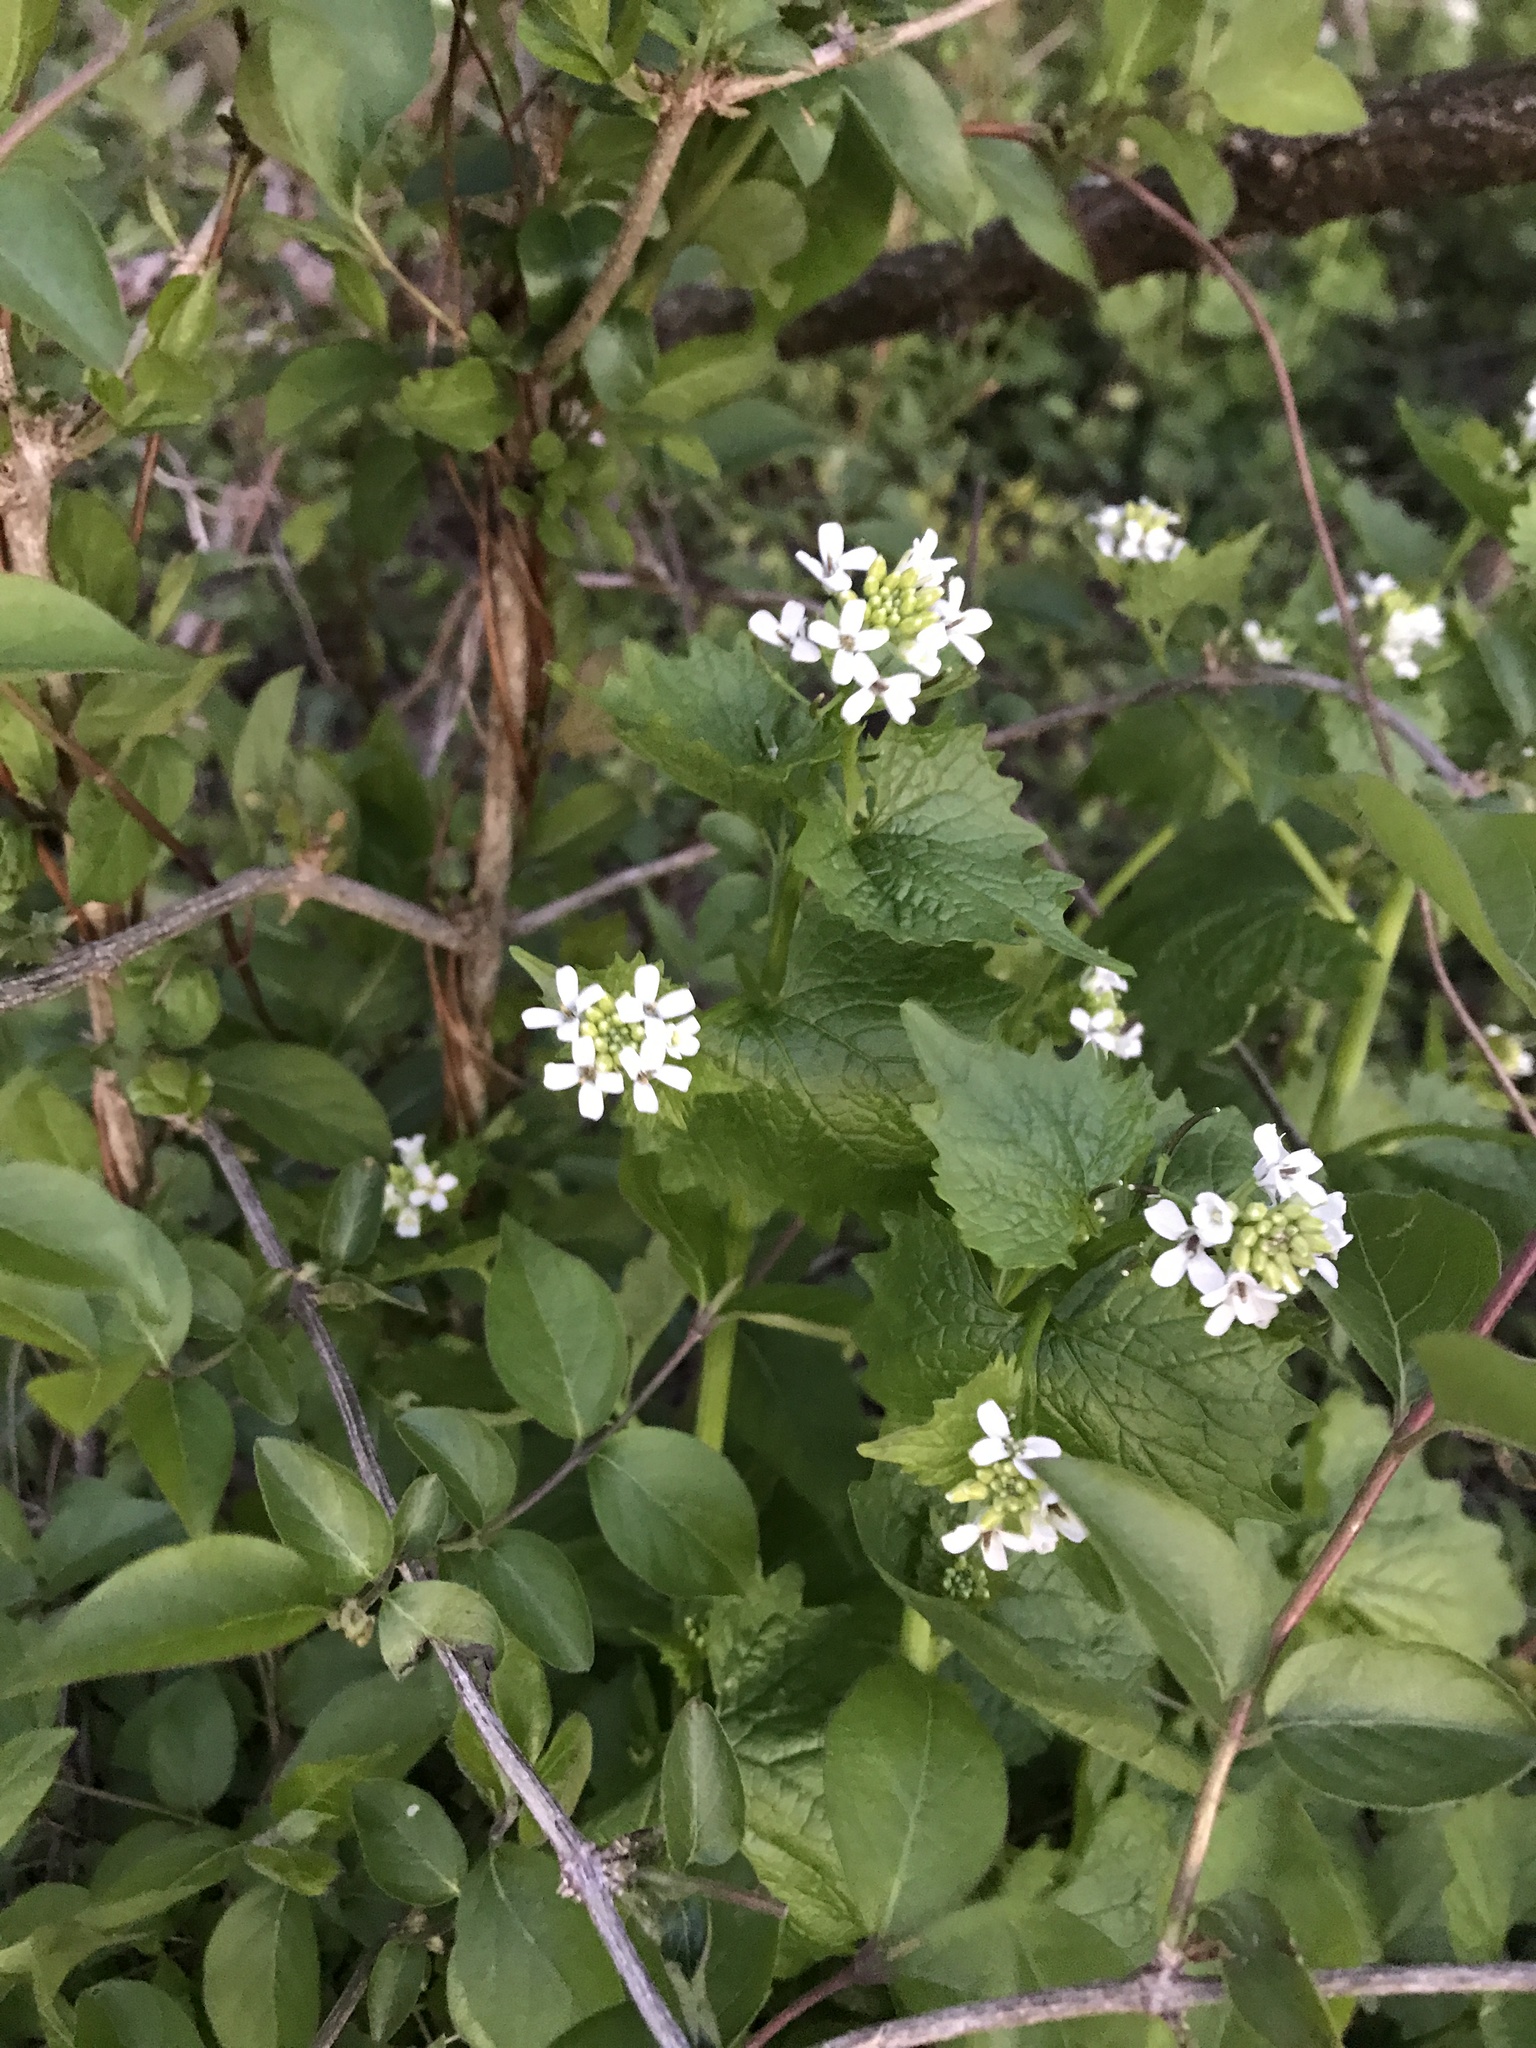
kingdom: Plantae
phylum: Tracheophyta
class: Magnoliopsida
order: Brassicales
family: Brassicaceae
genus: Alliaria
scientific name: Alliaria petiolata
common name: Garlic mustard
